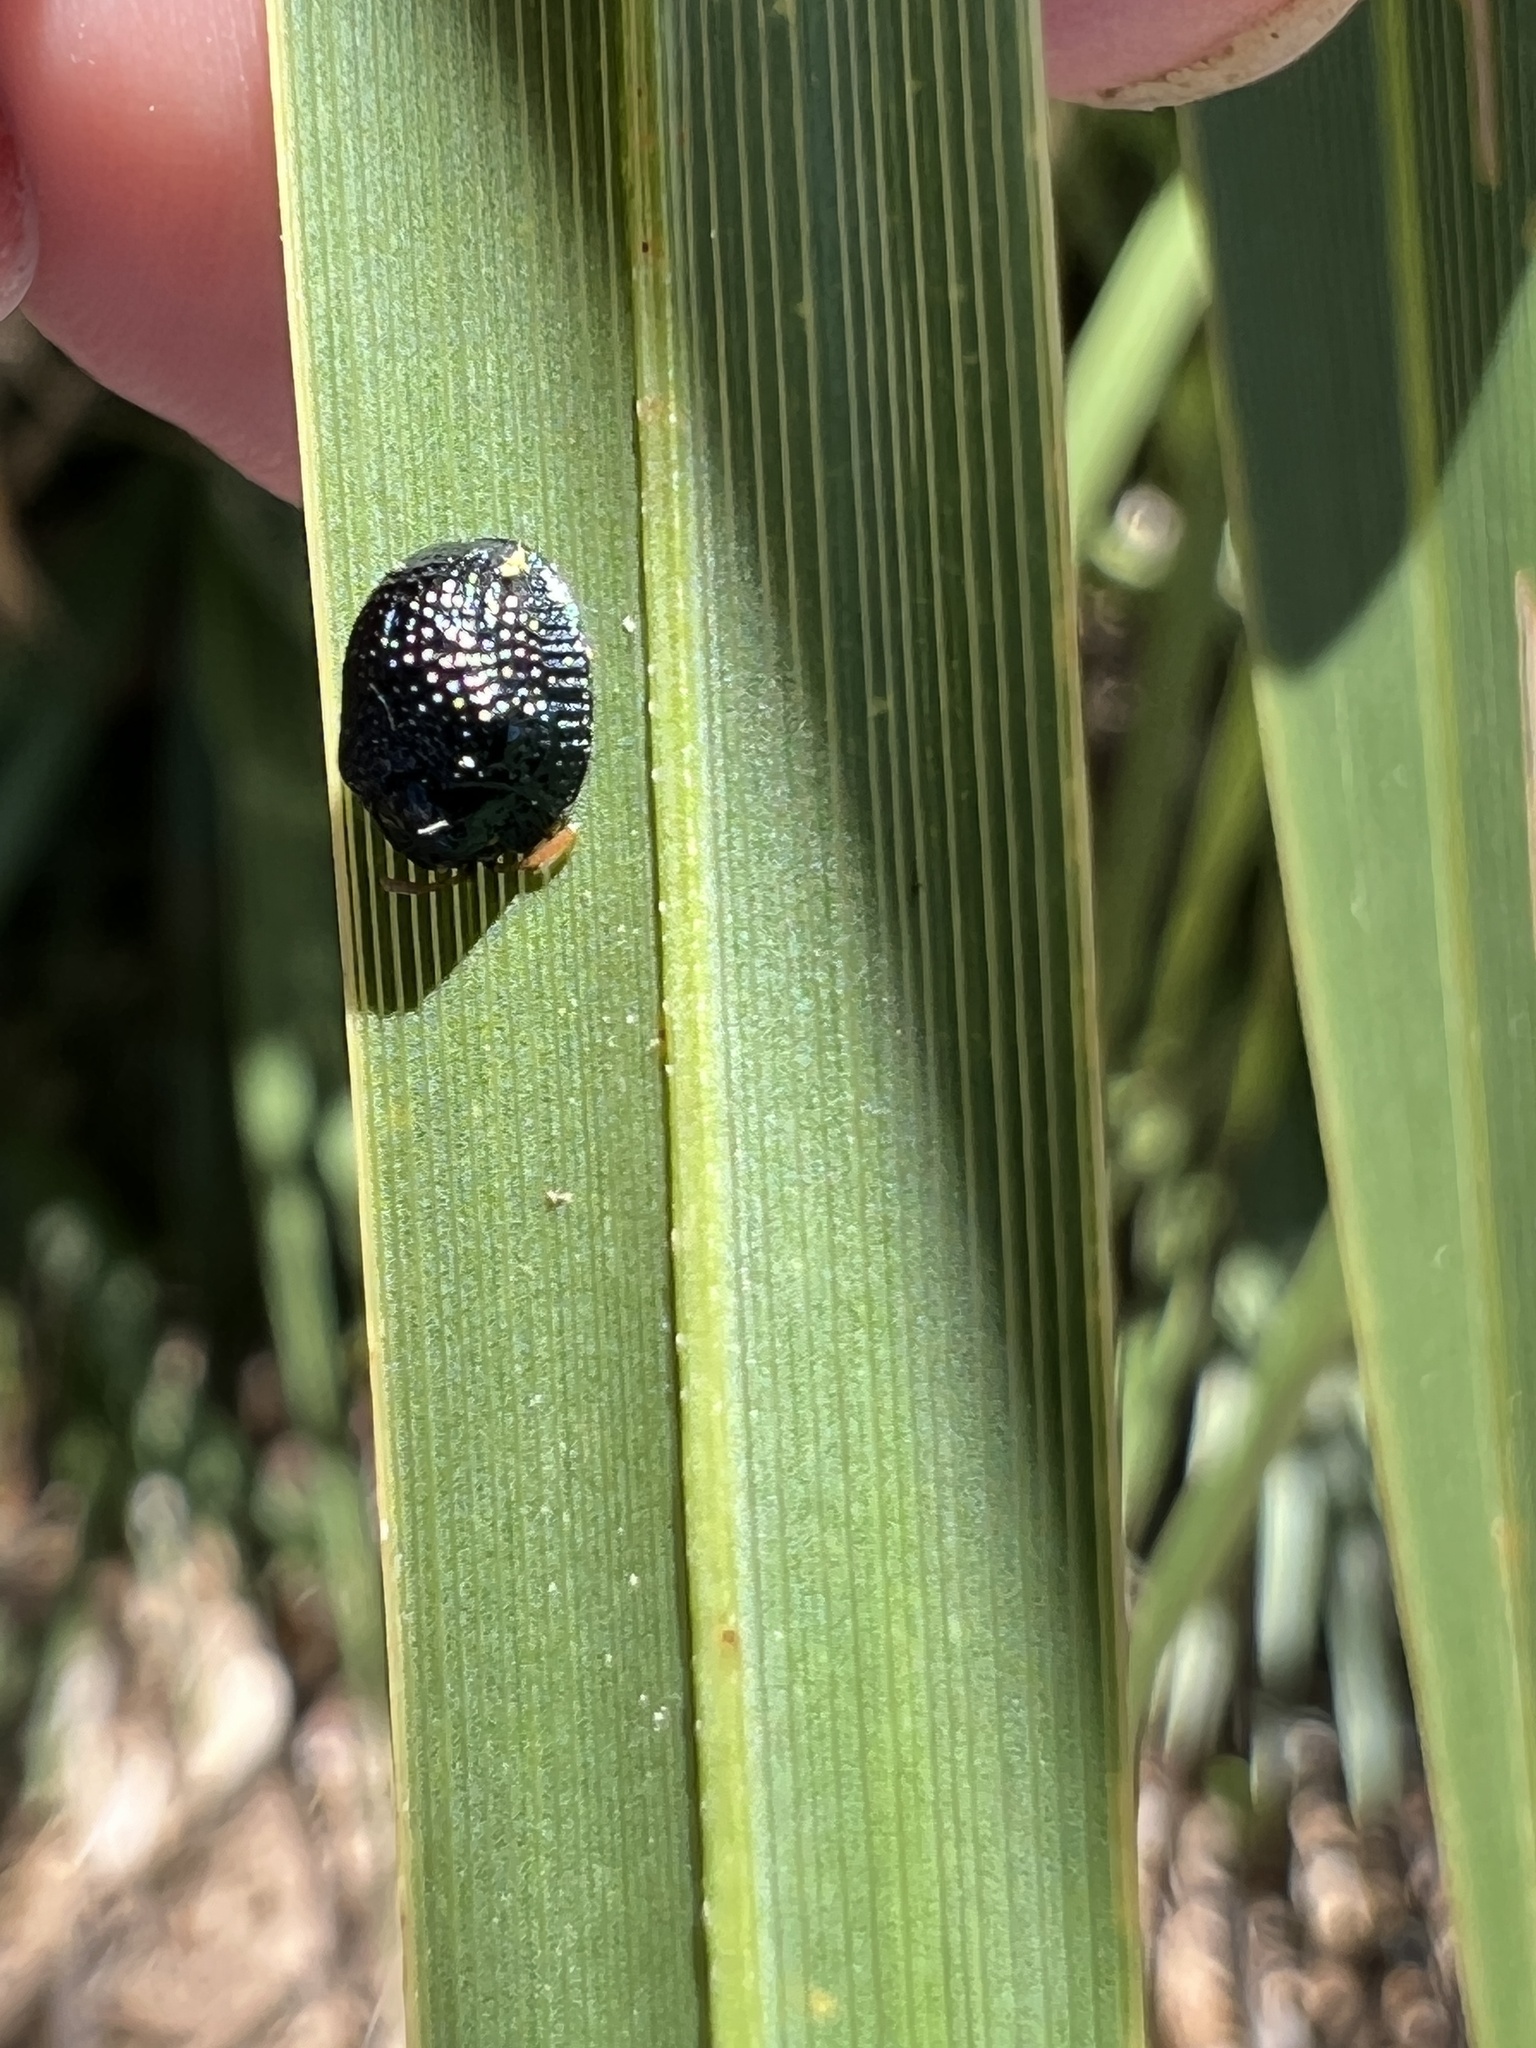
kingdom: Animalia
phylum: Arthropoda
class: Insecta
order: Coleoptera
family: Chrysomelidae
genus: Hemisphaerota
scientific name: Hemisphaerota cyanea
